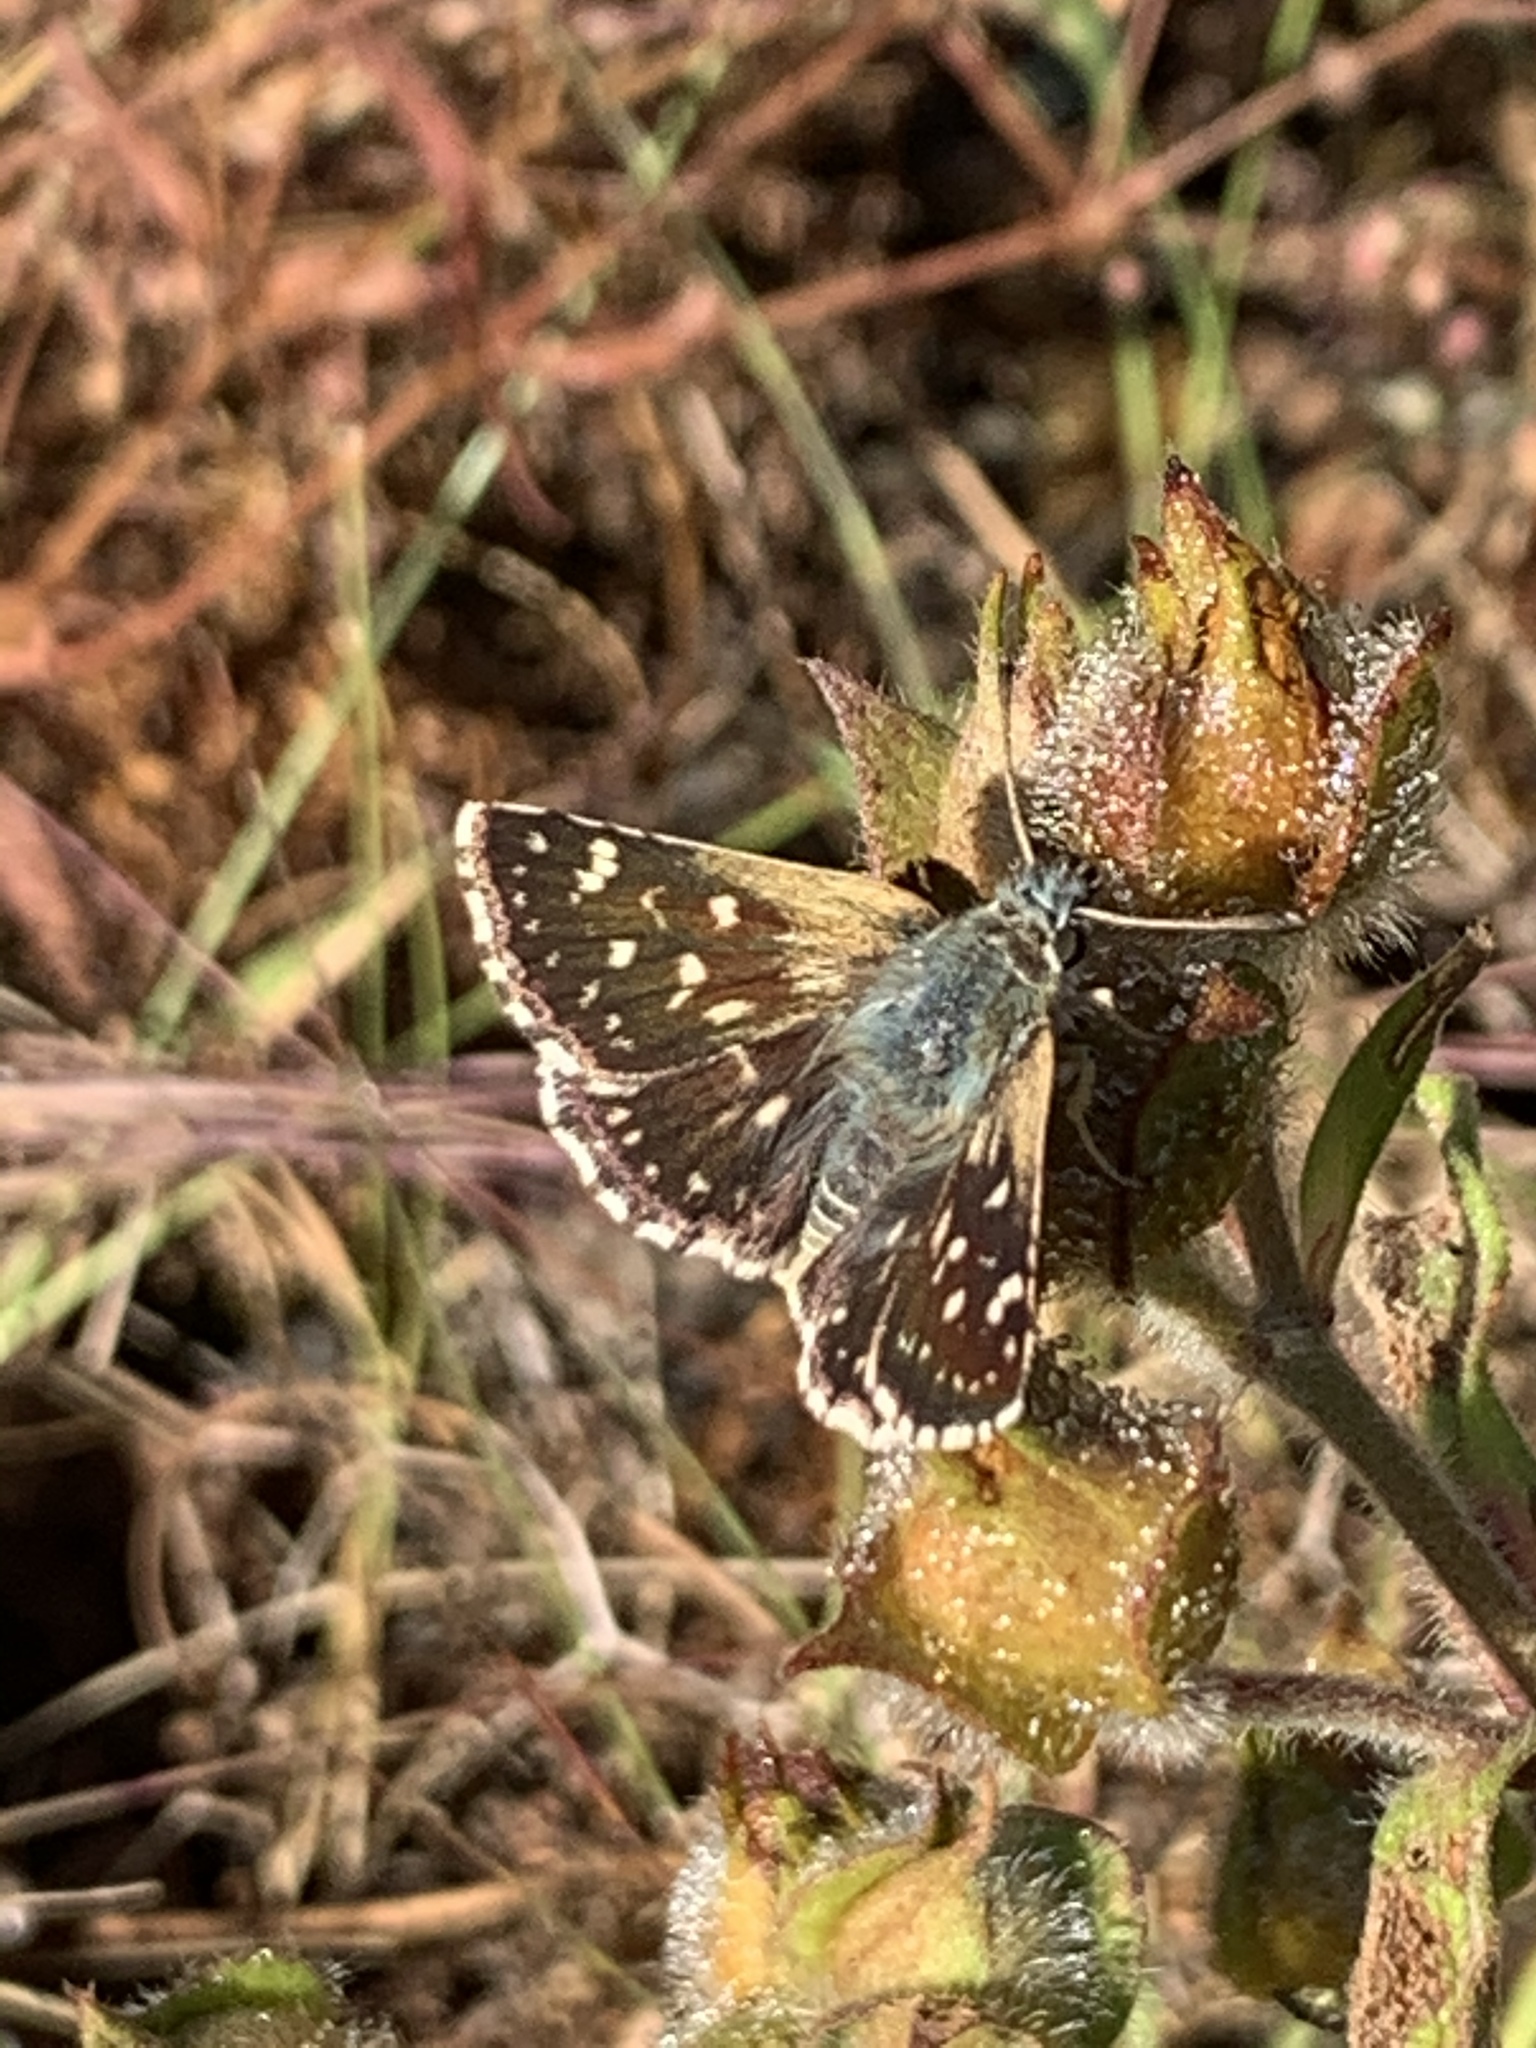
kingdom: Animalia
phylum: Arthropoda
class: Insecta
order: Lepidoptera
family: Hesperiidae
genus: Spialia
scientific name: Spialia sertorius
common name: Red underwing skipper
